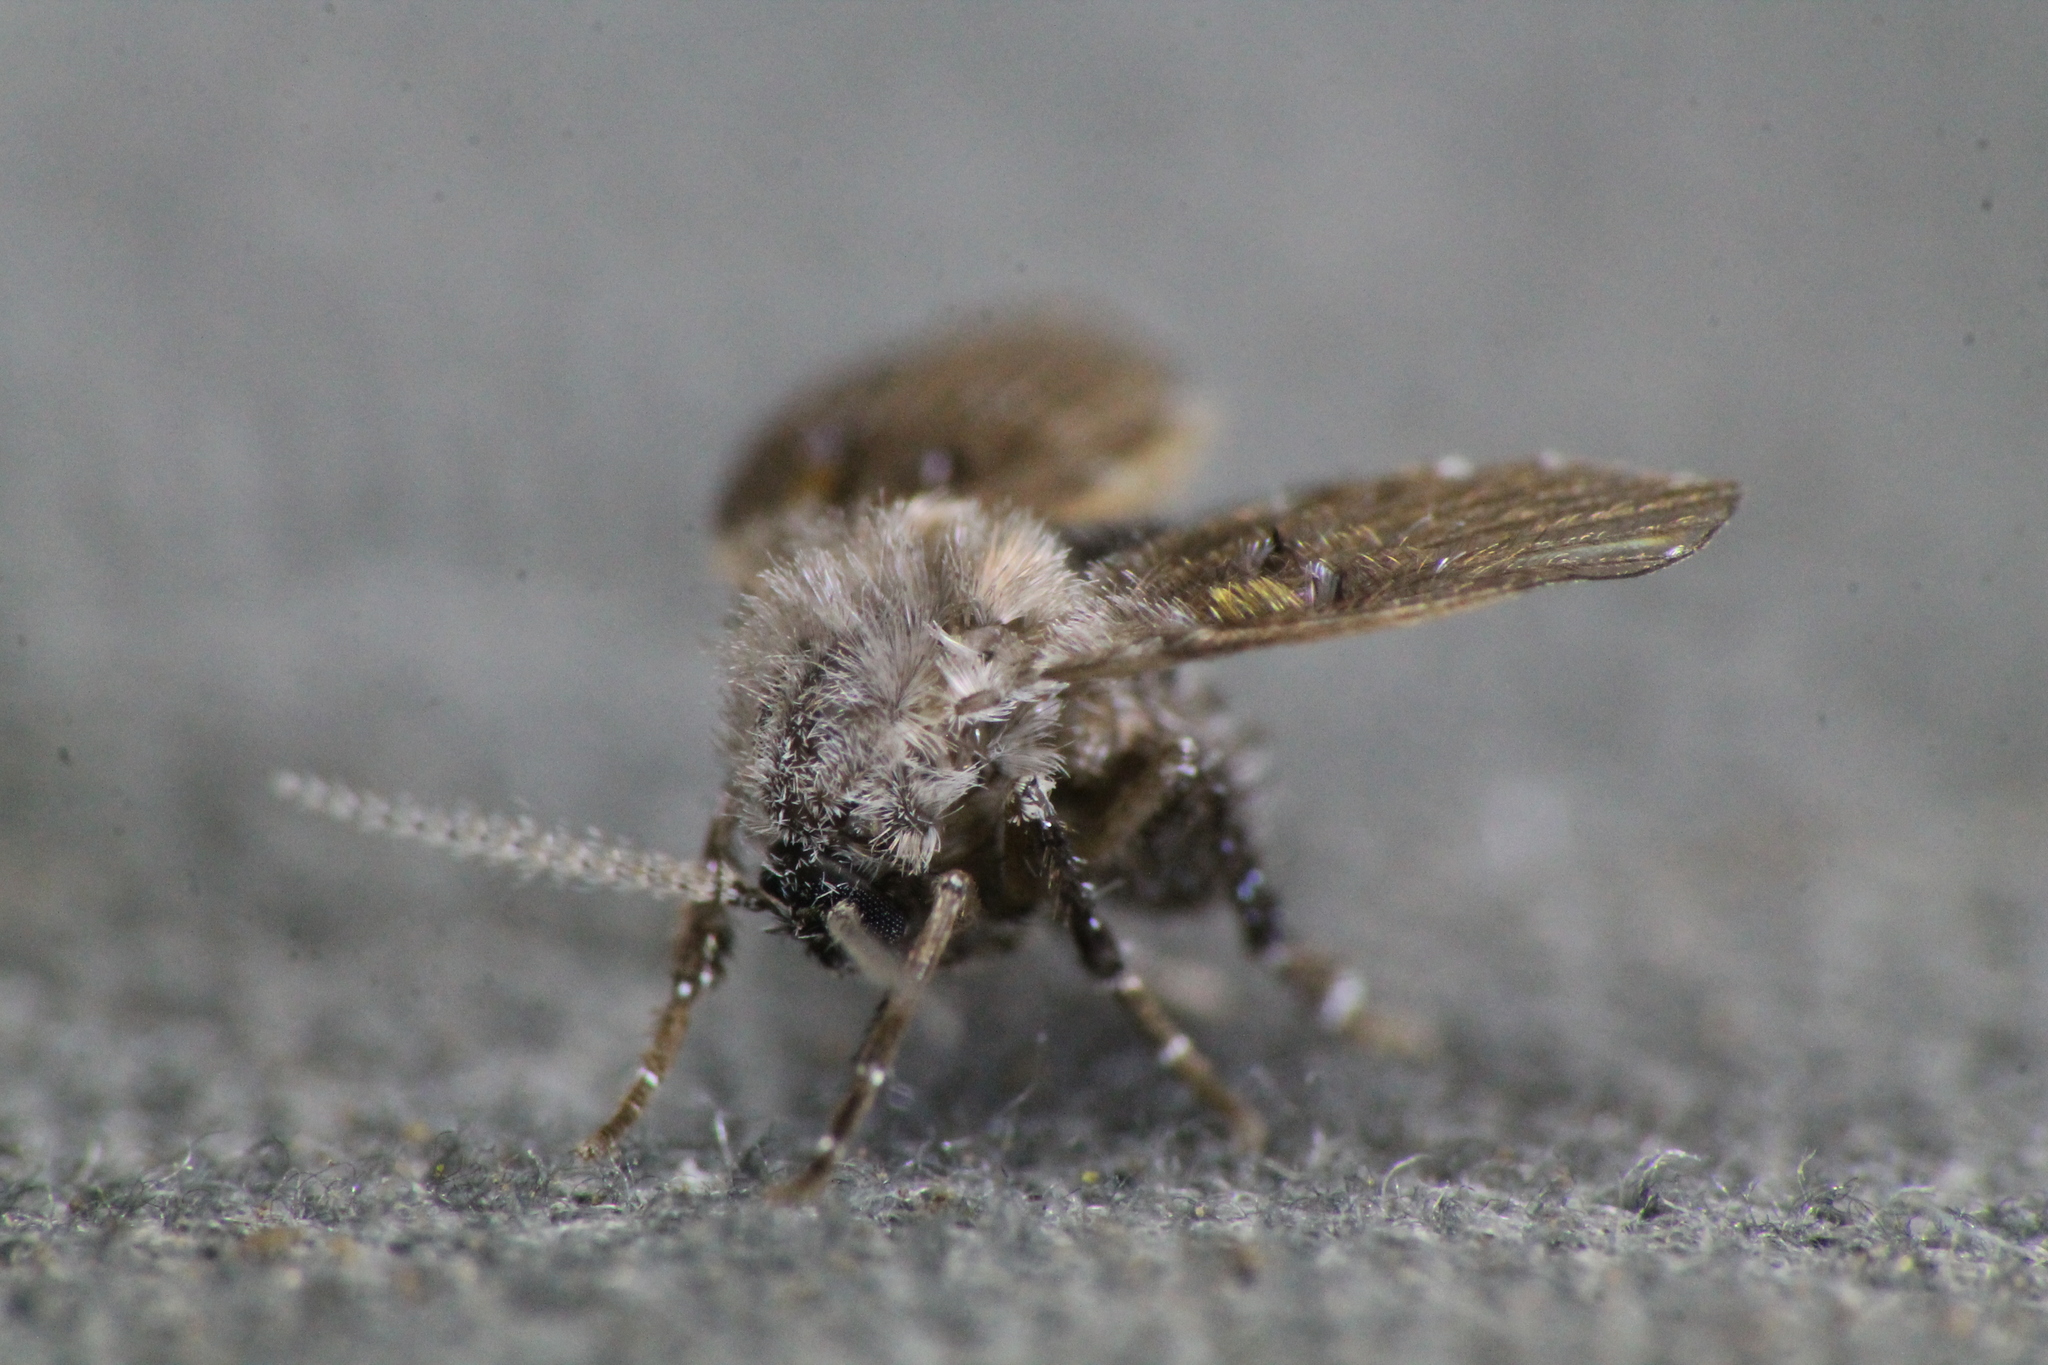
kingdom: Animalia
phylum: Arthropoda
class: Insecta
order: Diptera
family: Psychodidae
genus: Clogmia
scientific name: Clogmia albipunctatus
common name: White-spotted moth fly
